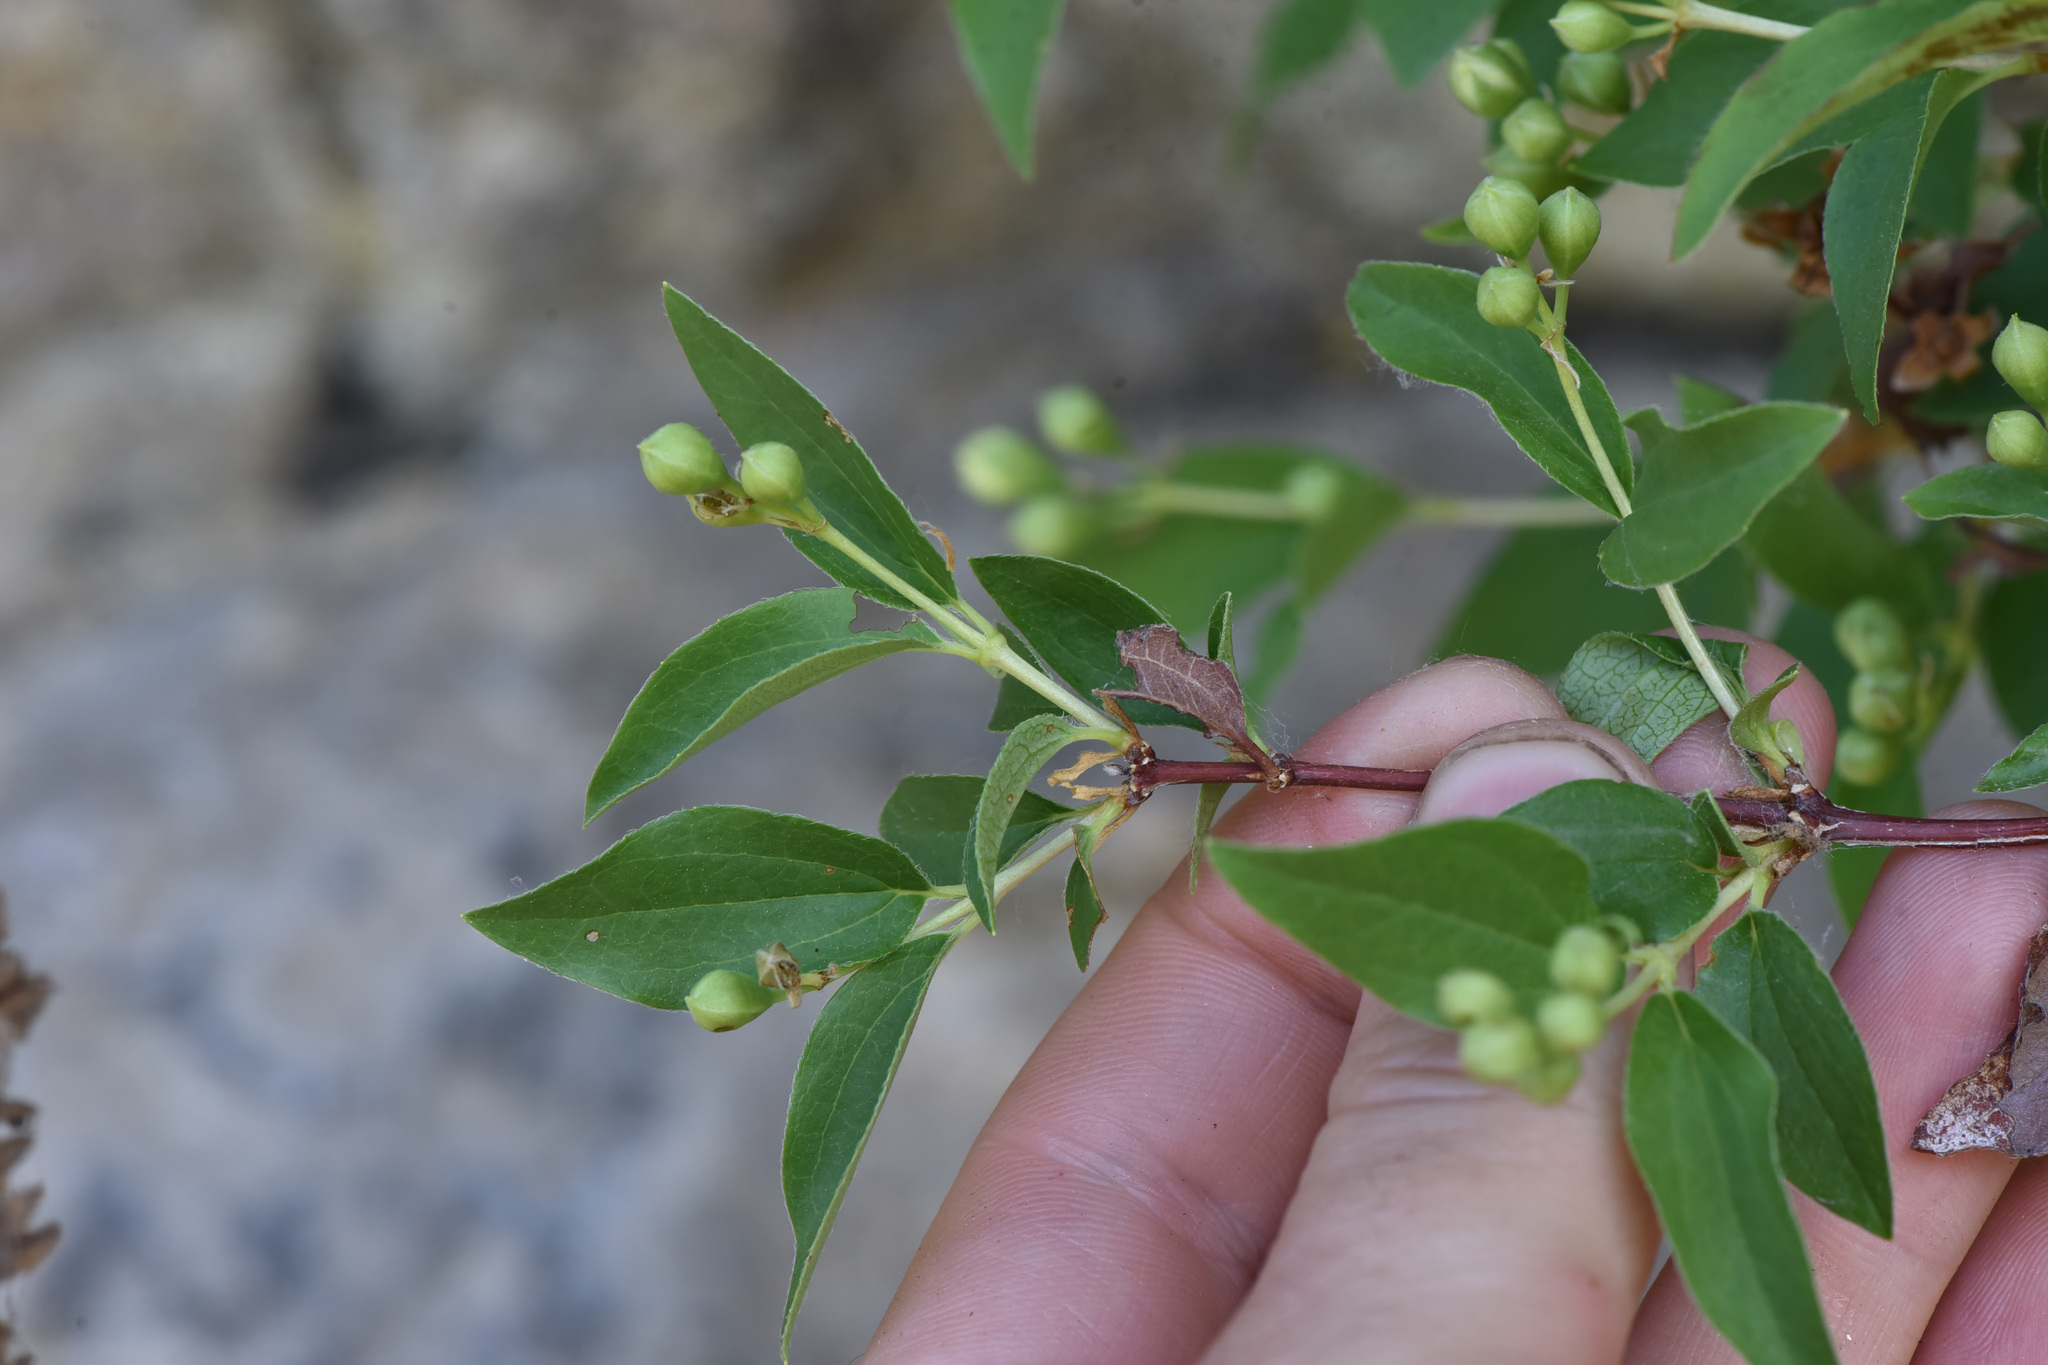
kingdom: Plantae
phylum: Tracheophyta
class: Magnoliopsida
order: Cornales
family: Hydrangeaceae
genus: Philadelphus
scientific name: Philadelphus lewisii
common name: Lewis's mock orange
